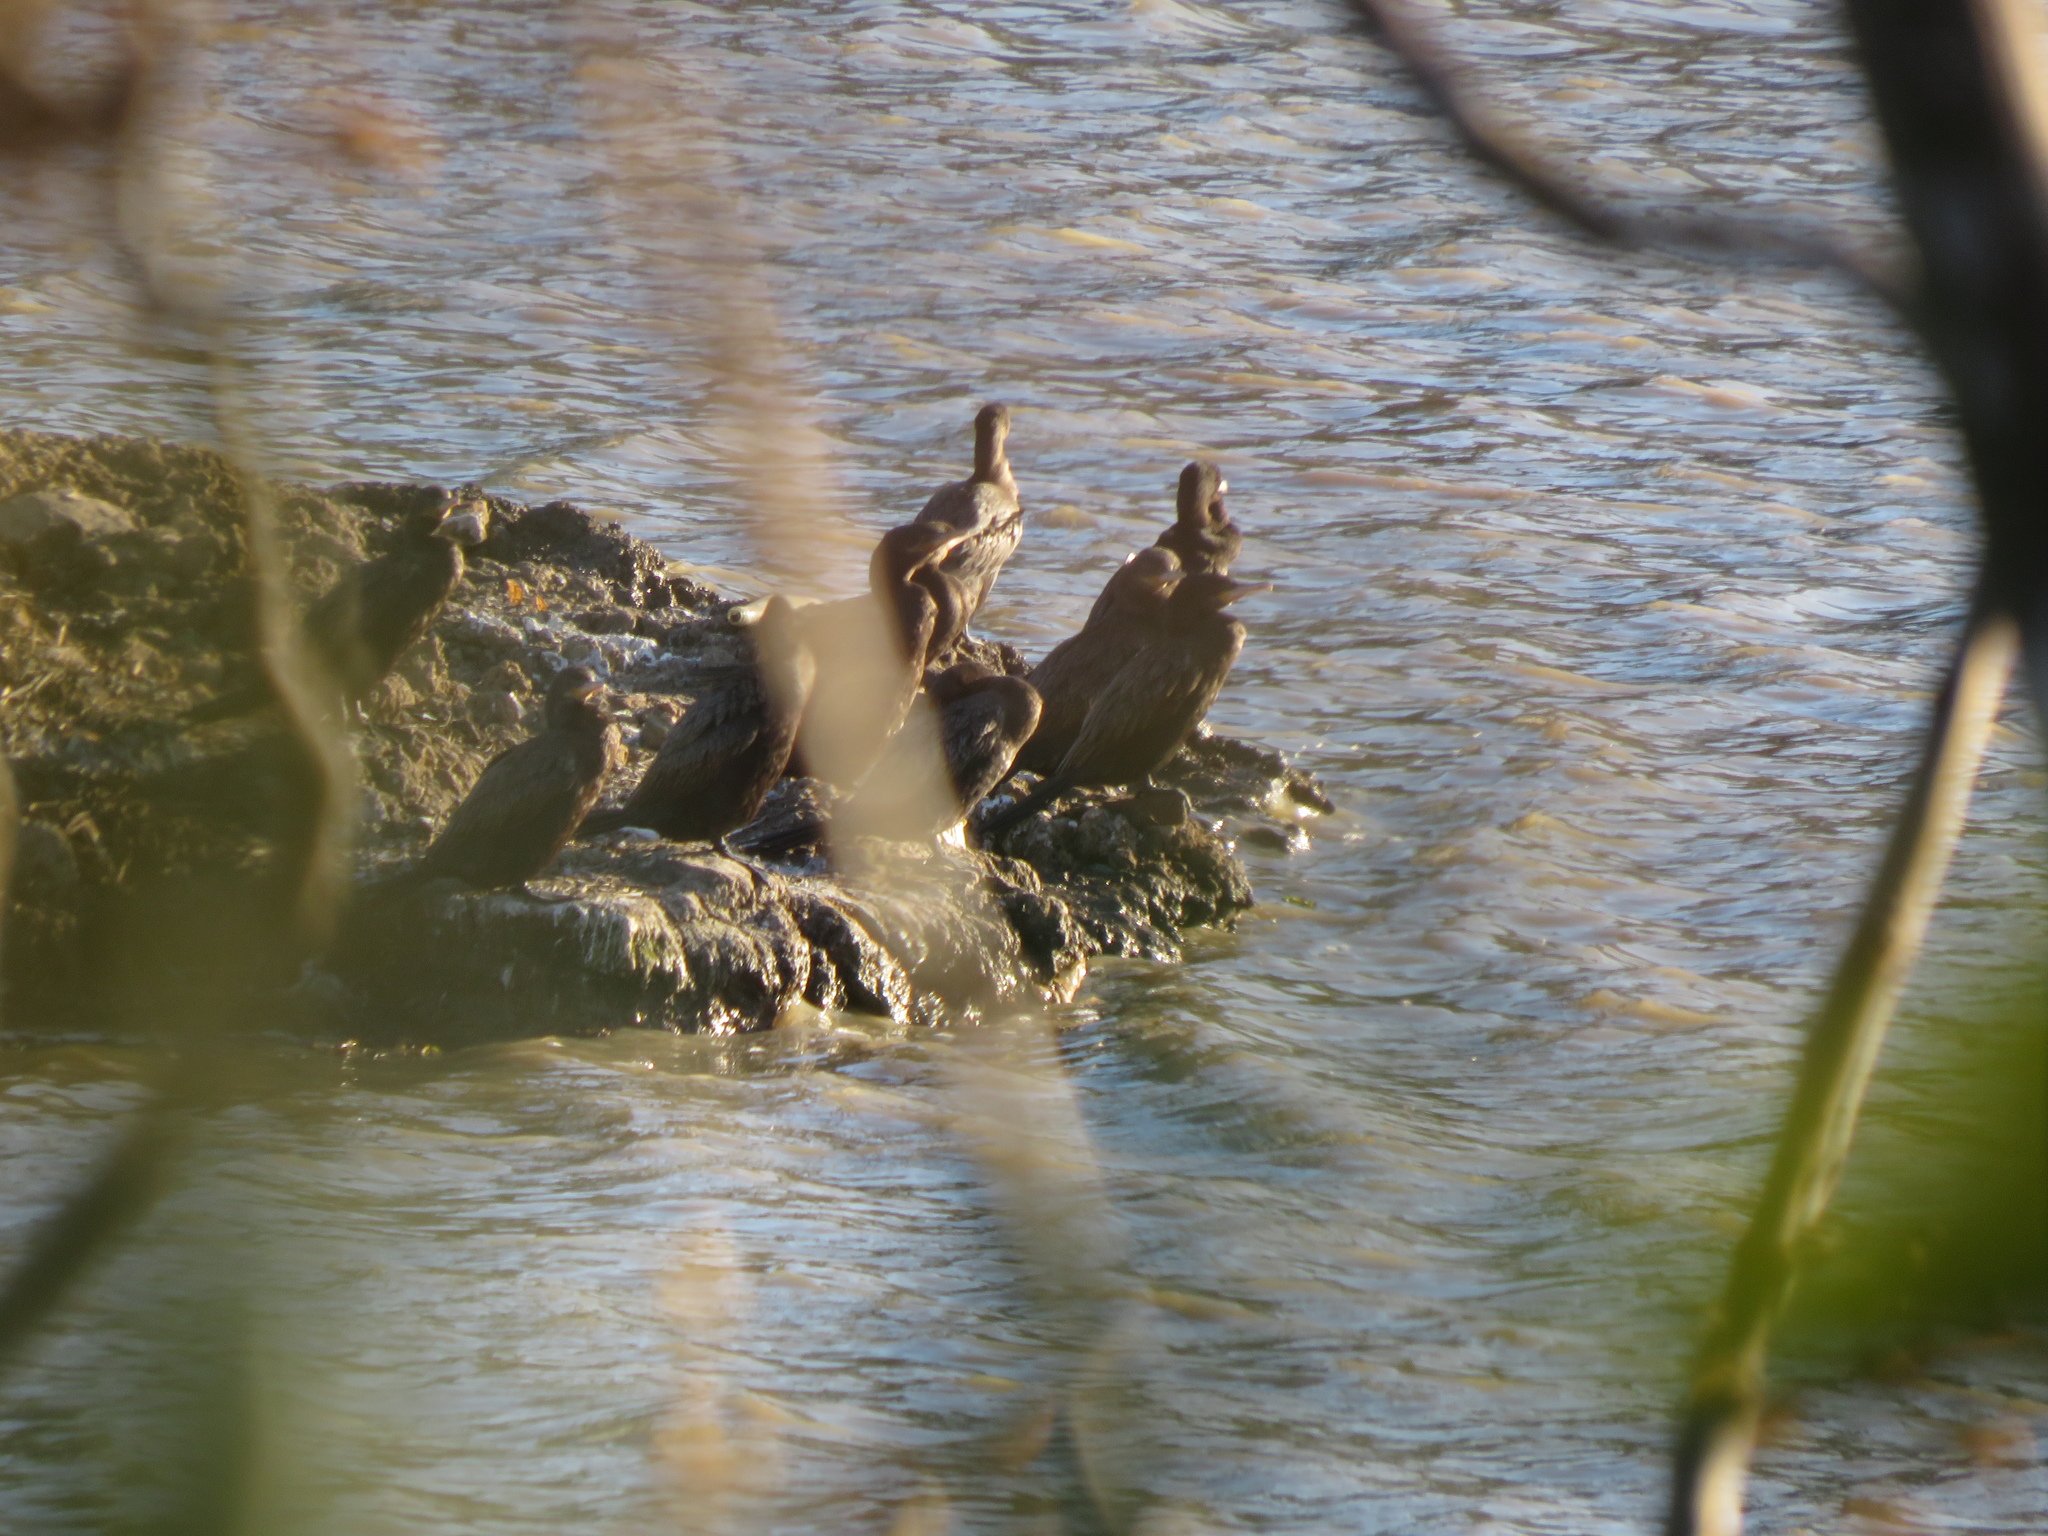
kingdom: Animalia
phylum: Chordata
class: Aves
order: Suliformes
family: Phalacrocoracidae
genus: Phalacrocorax
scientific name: Phalacrocorax brasilianus
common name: Neotropic cormorant
